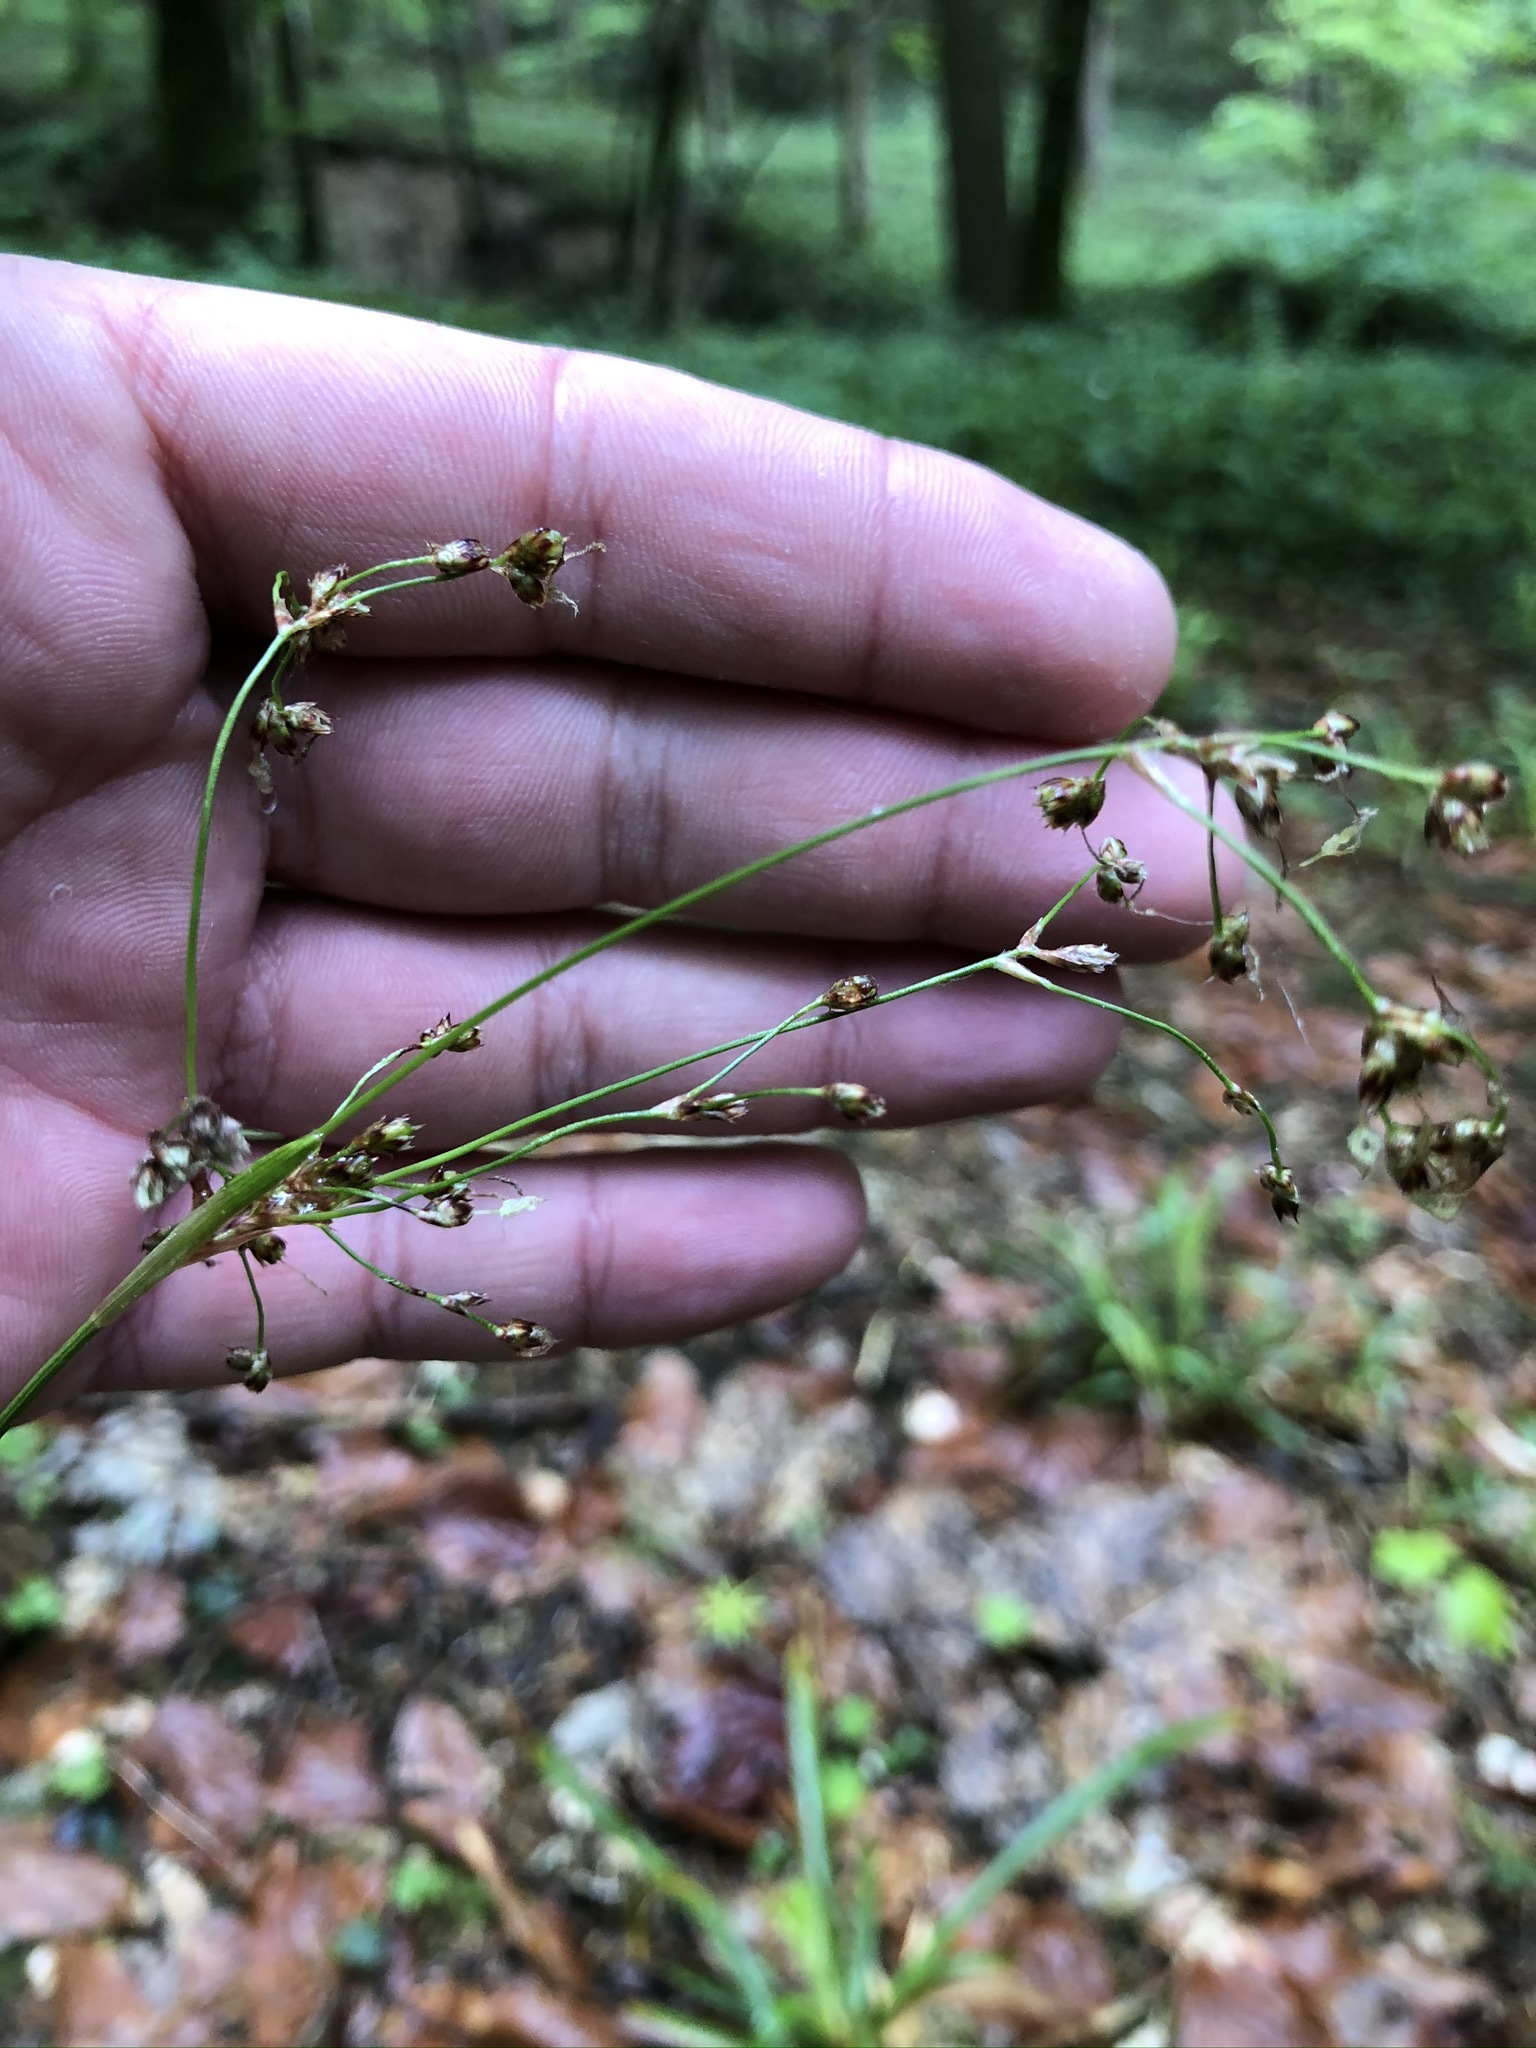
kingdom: Plantae
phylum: Tracheophyta
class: Liliopsida
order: Poales
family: Juncaceae
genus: Luzula
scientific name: Luzula pilosa
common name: Hairy wood-rush
